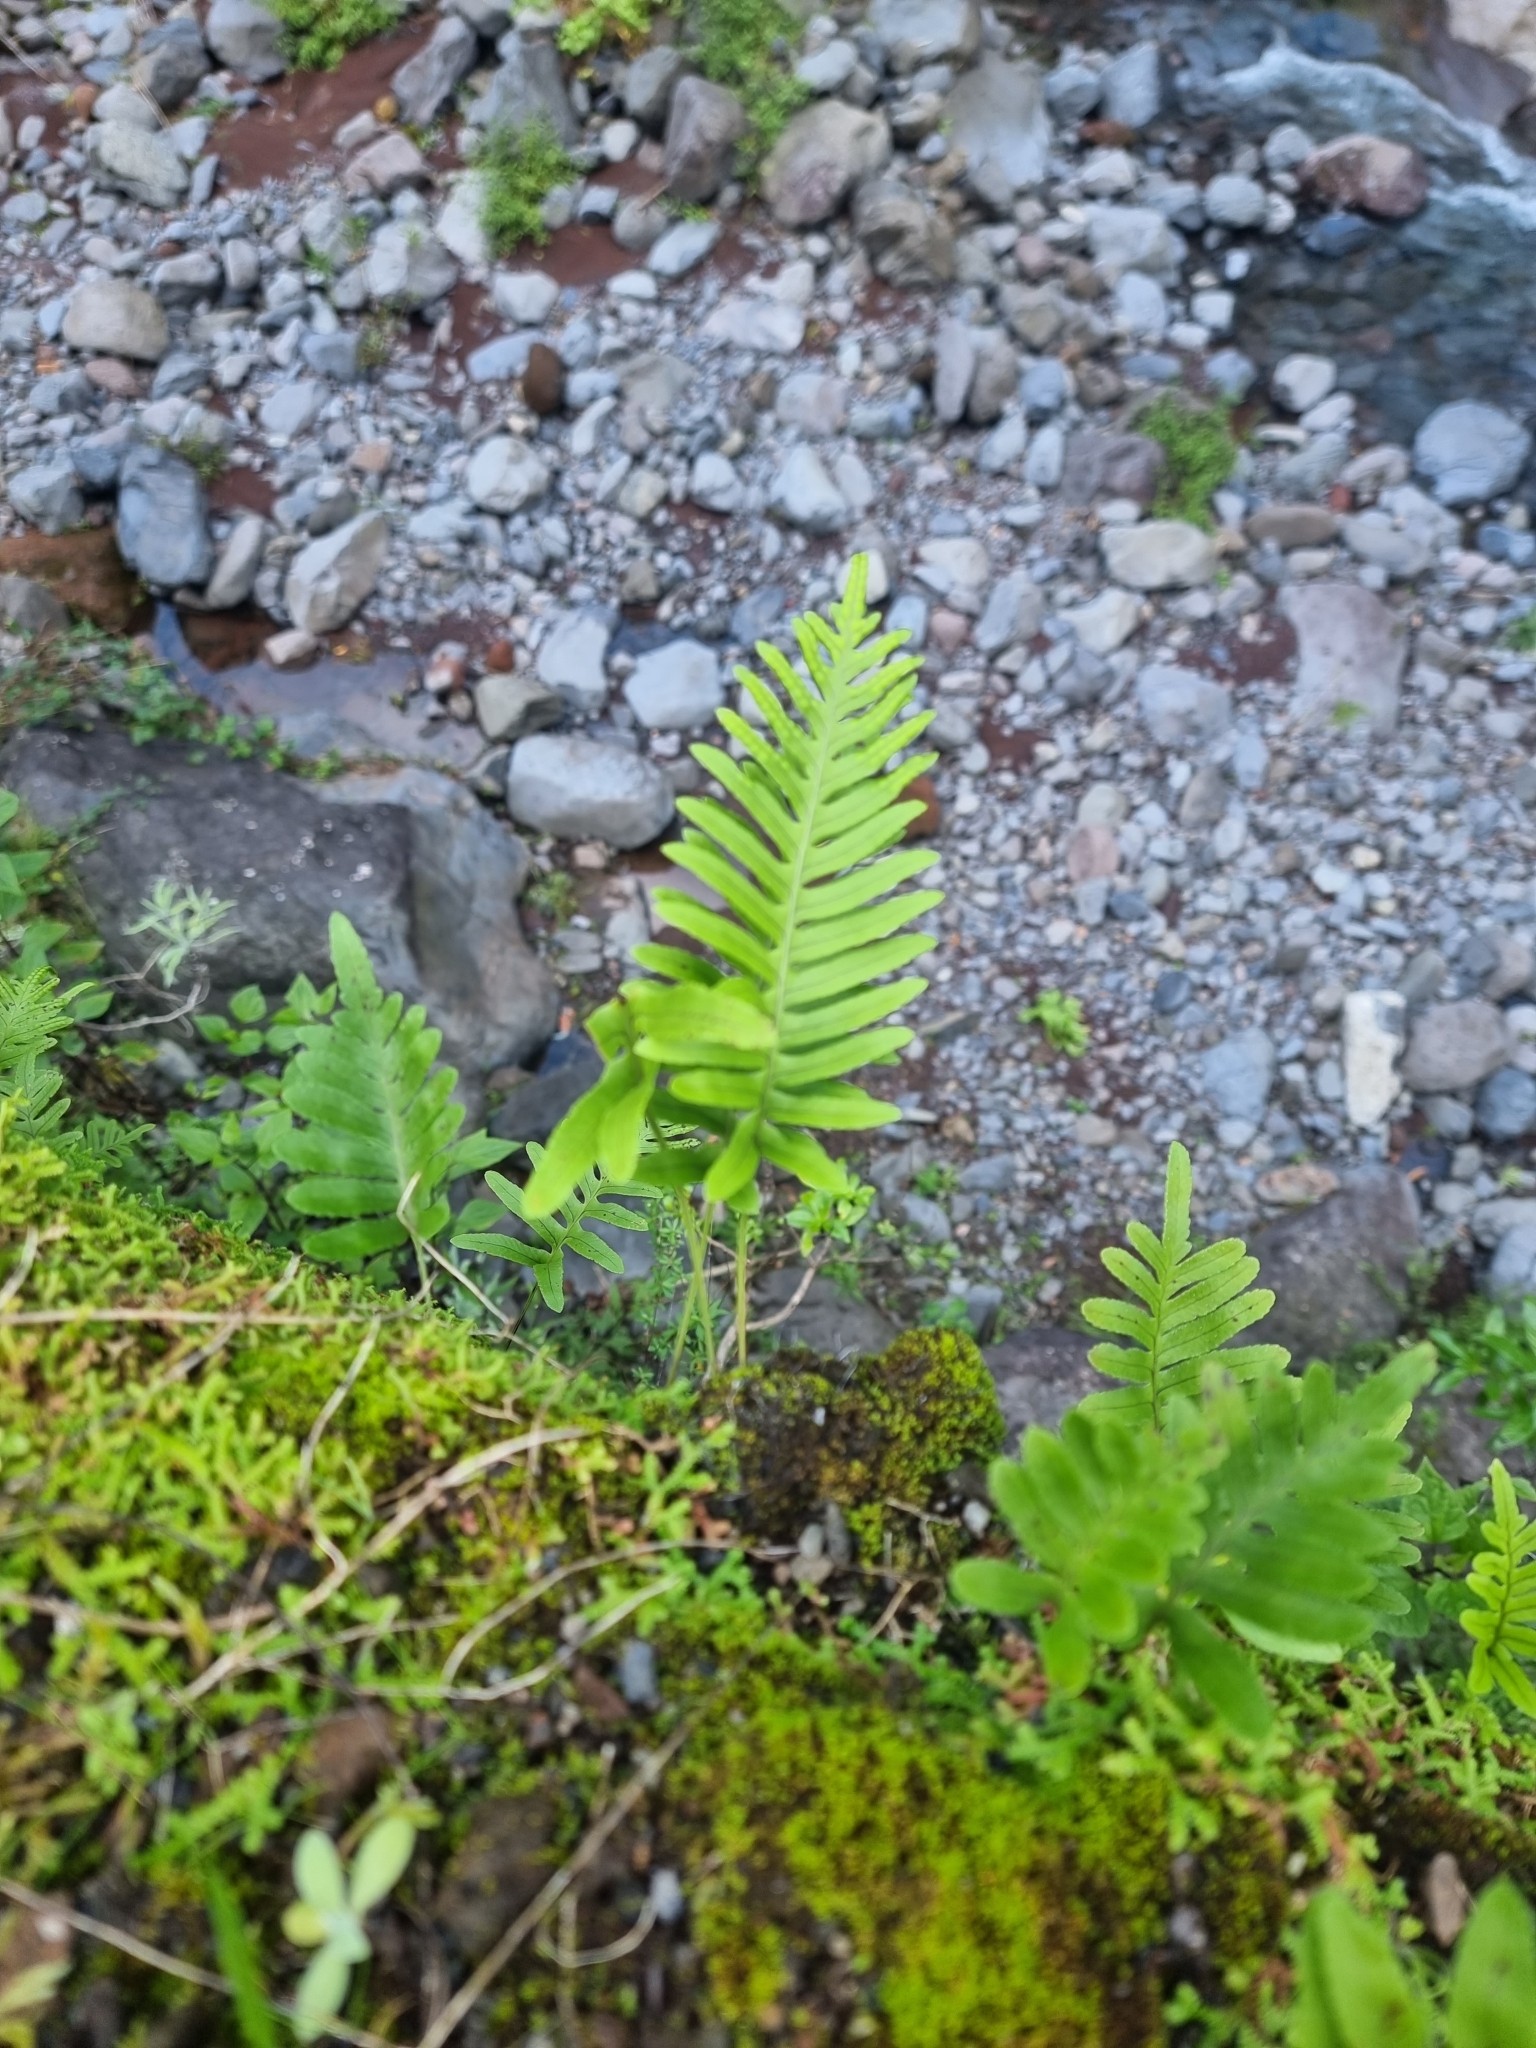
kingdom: Plantae
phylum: Tracheophyta
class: Polypodiopsida
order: Polypodiales
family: Polypodiaceae
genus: Polypodium
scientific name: Polypodium macaronesicum
